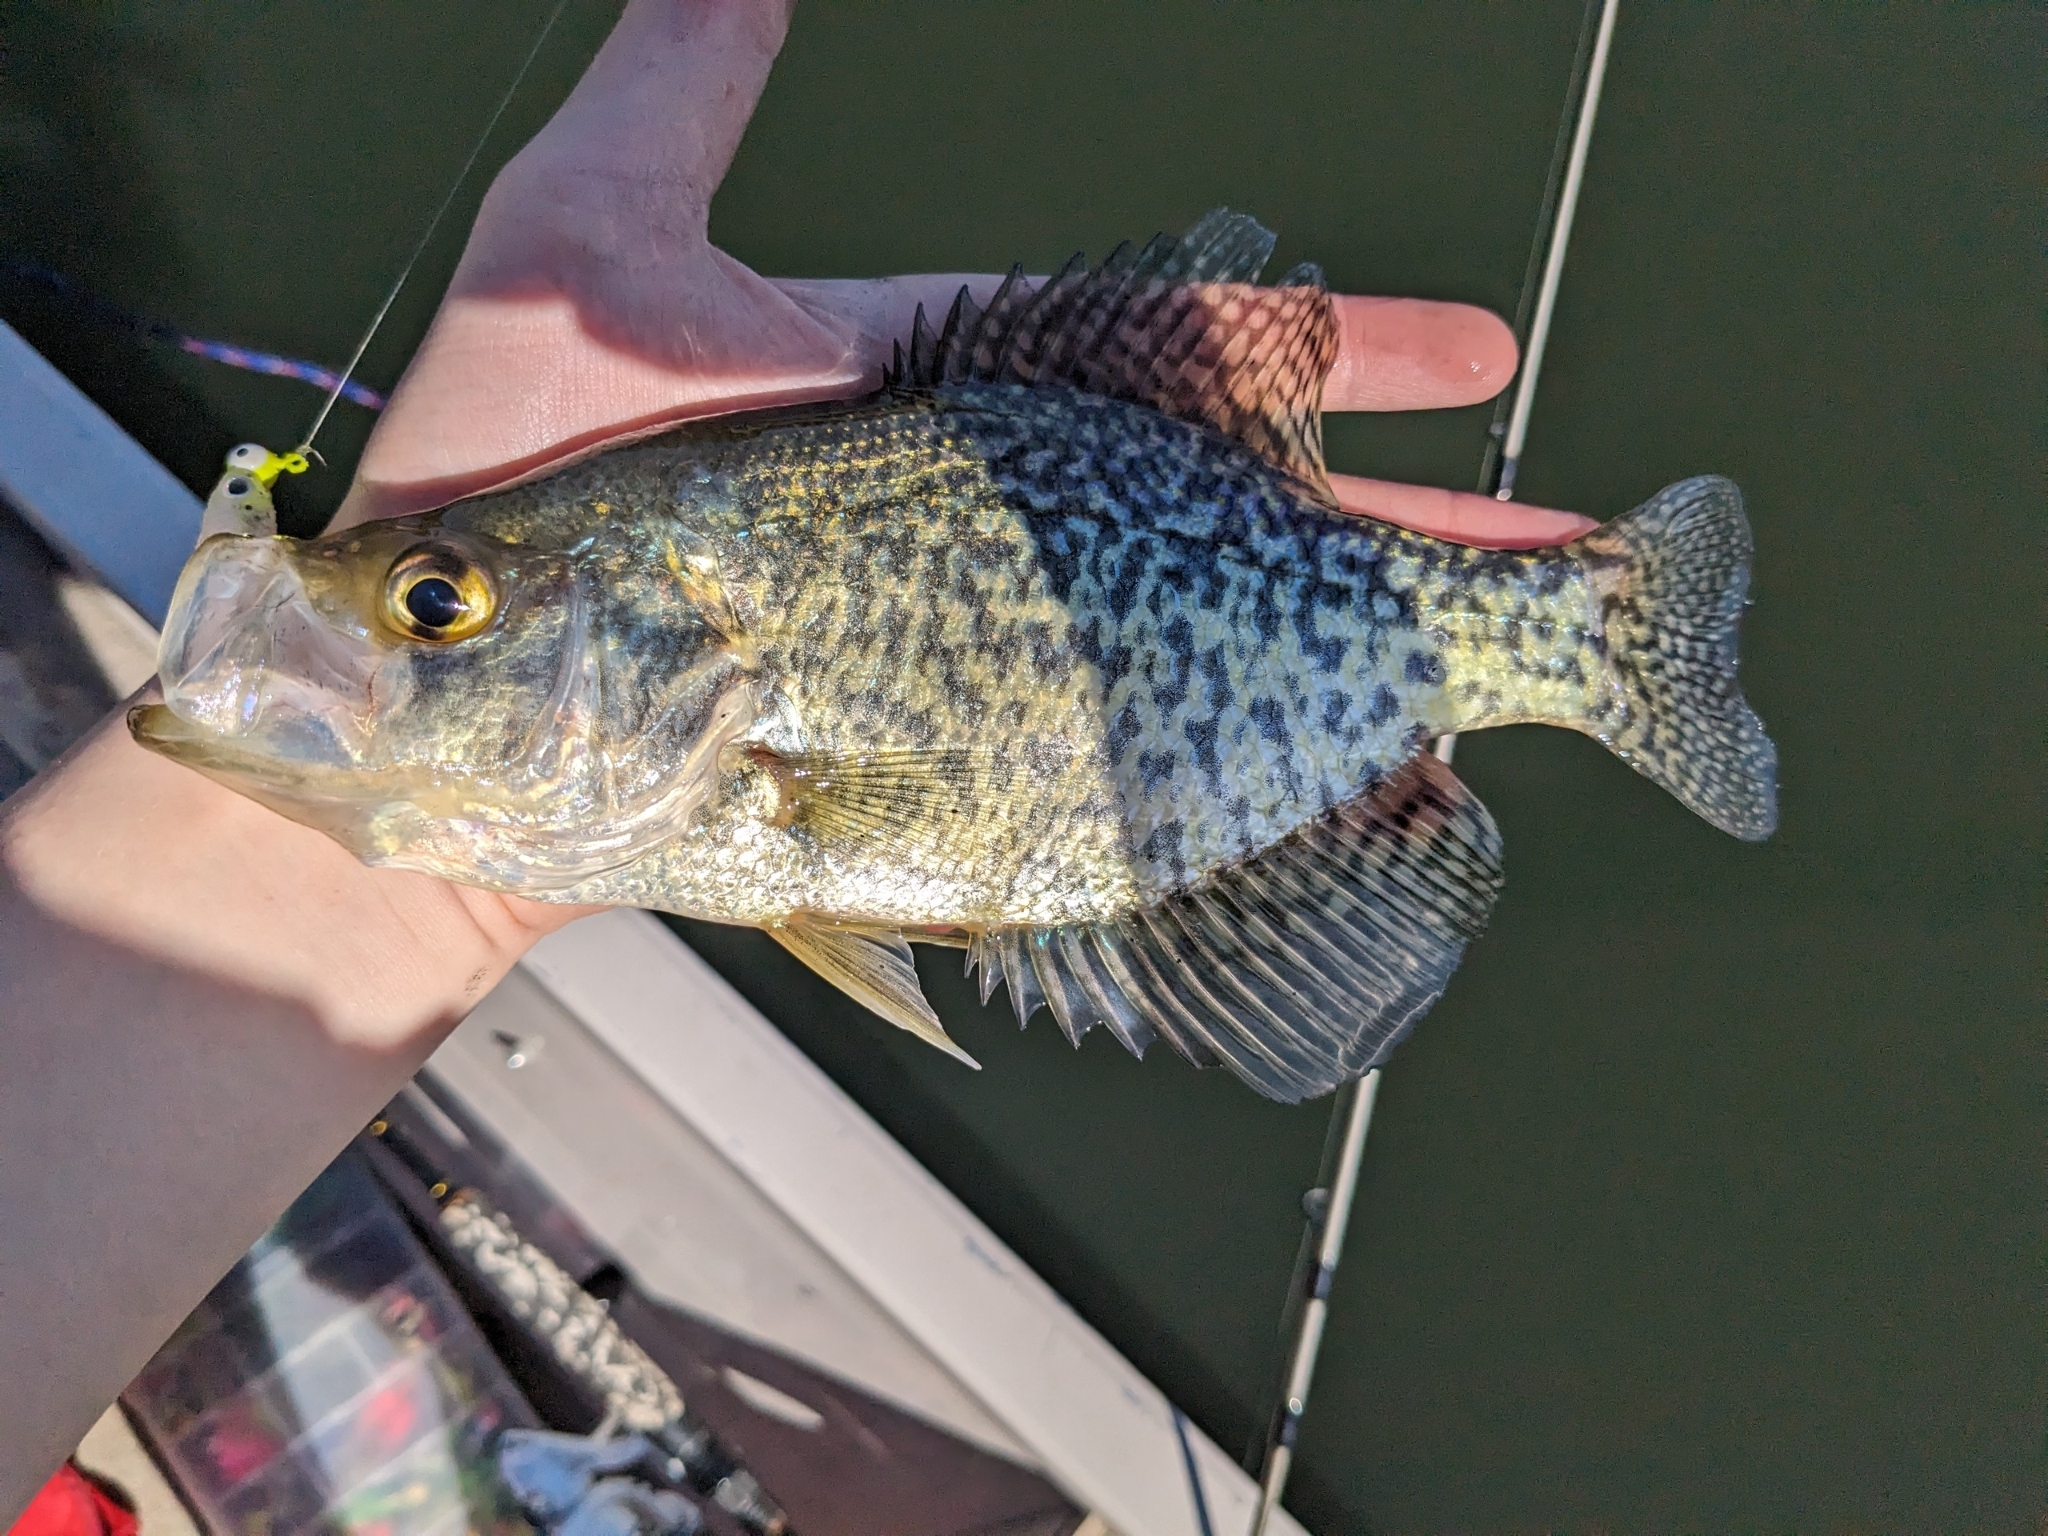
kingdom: Animalia
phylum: Chordata
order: Perciformes
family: Centrarchidae
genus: Pomoxis
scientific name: Pomoxis nigromaculatus
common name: Black crappie
